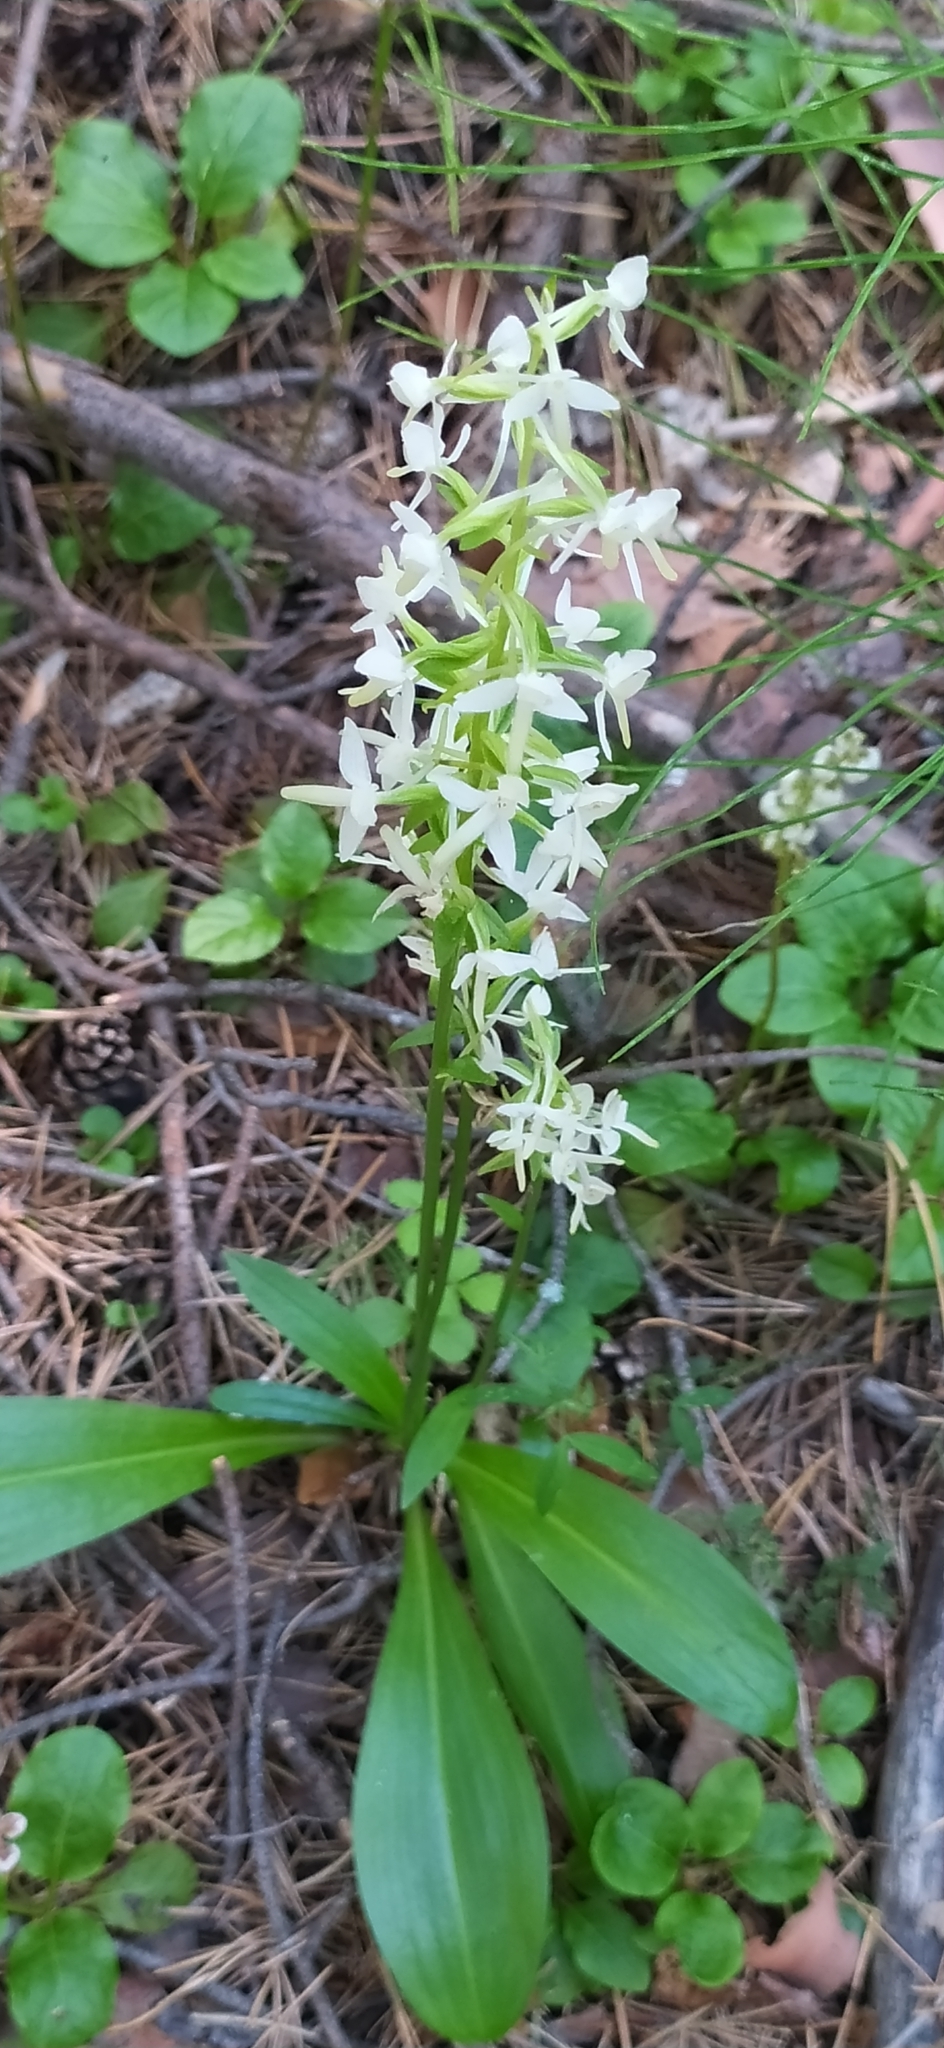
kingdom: Plantae
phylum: Tracheophyta
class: Liliopsida
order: Asparagales
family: Orchidaceae
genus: Platanthera
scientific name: Platanthera bifolia
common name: Lesser butterfly-orchid
